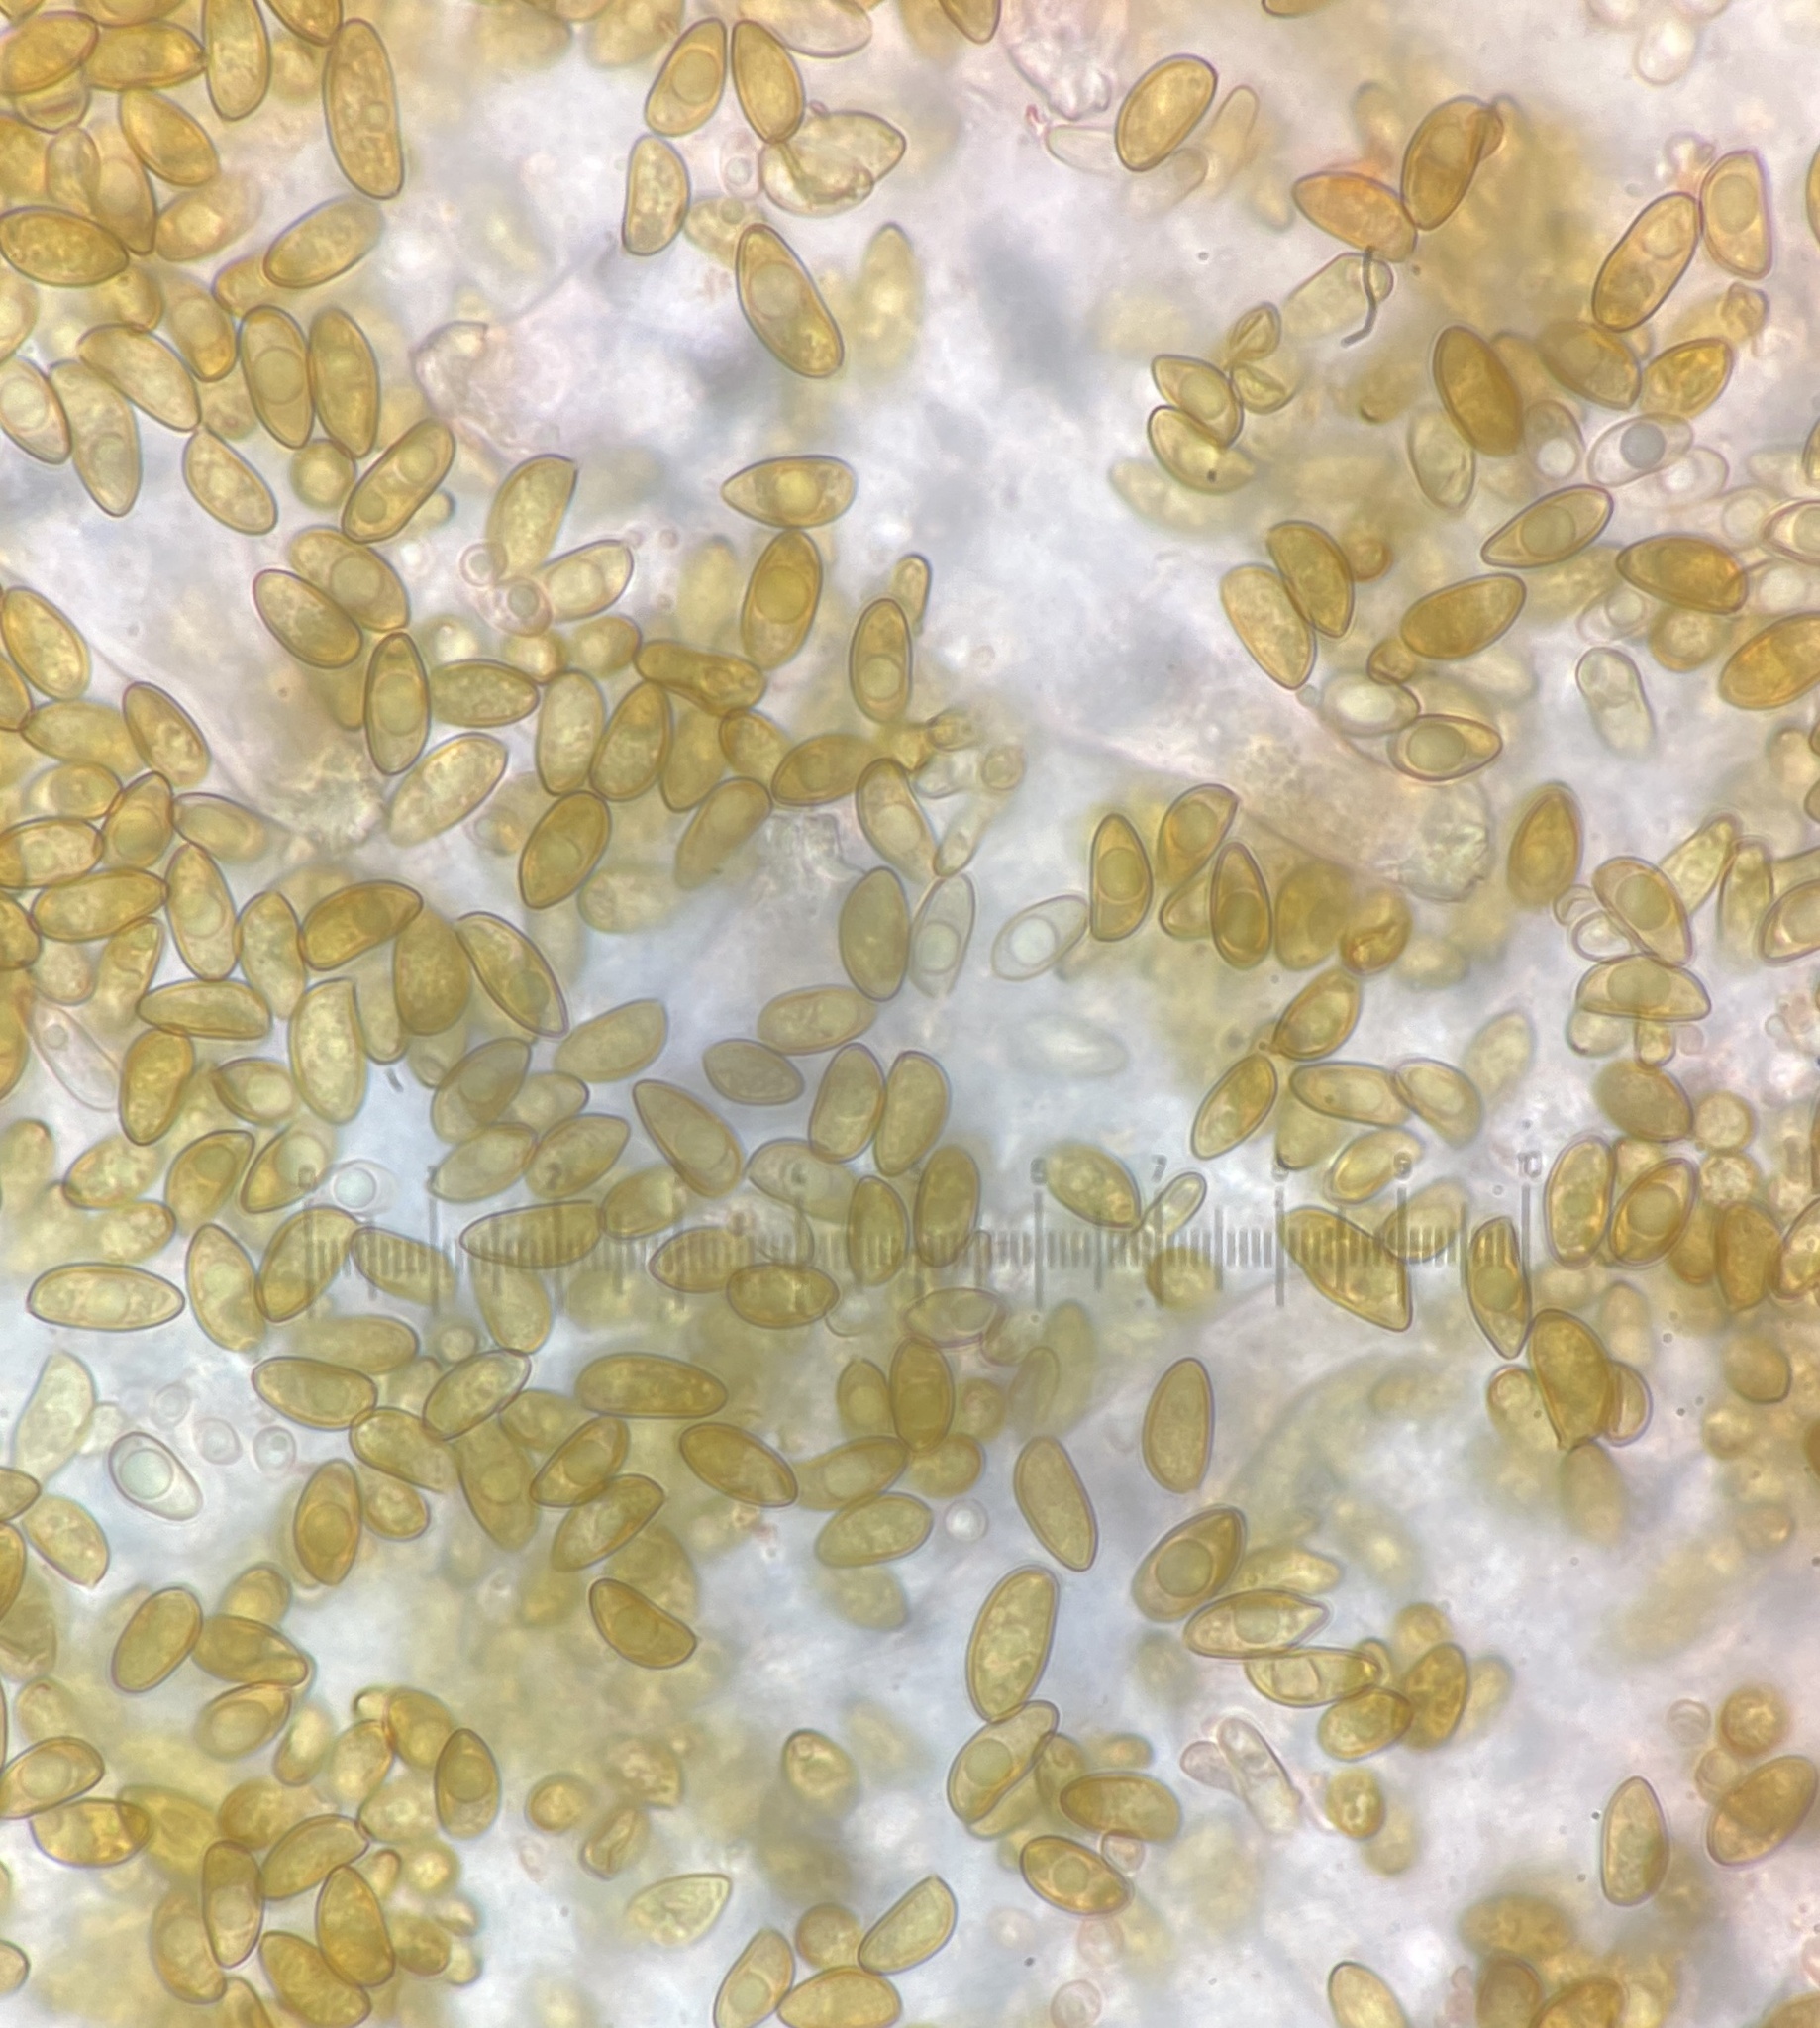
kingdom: Fungi
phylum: Basidiomycota
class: Agaricomycetes
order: Agaricales
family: Inocybaceae
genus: Inocybe
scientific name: Inocybe zethi
